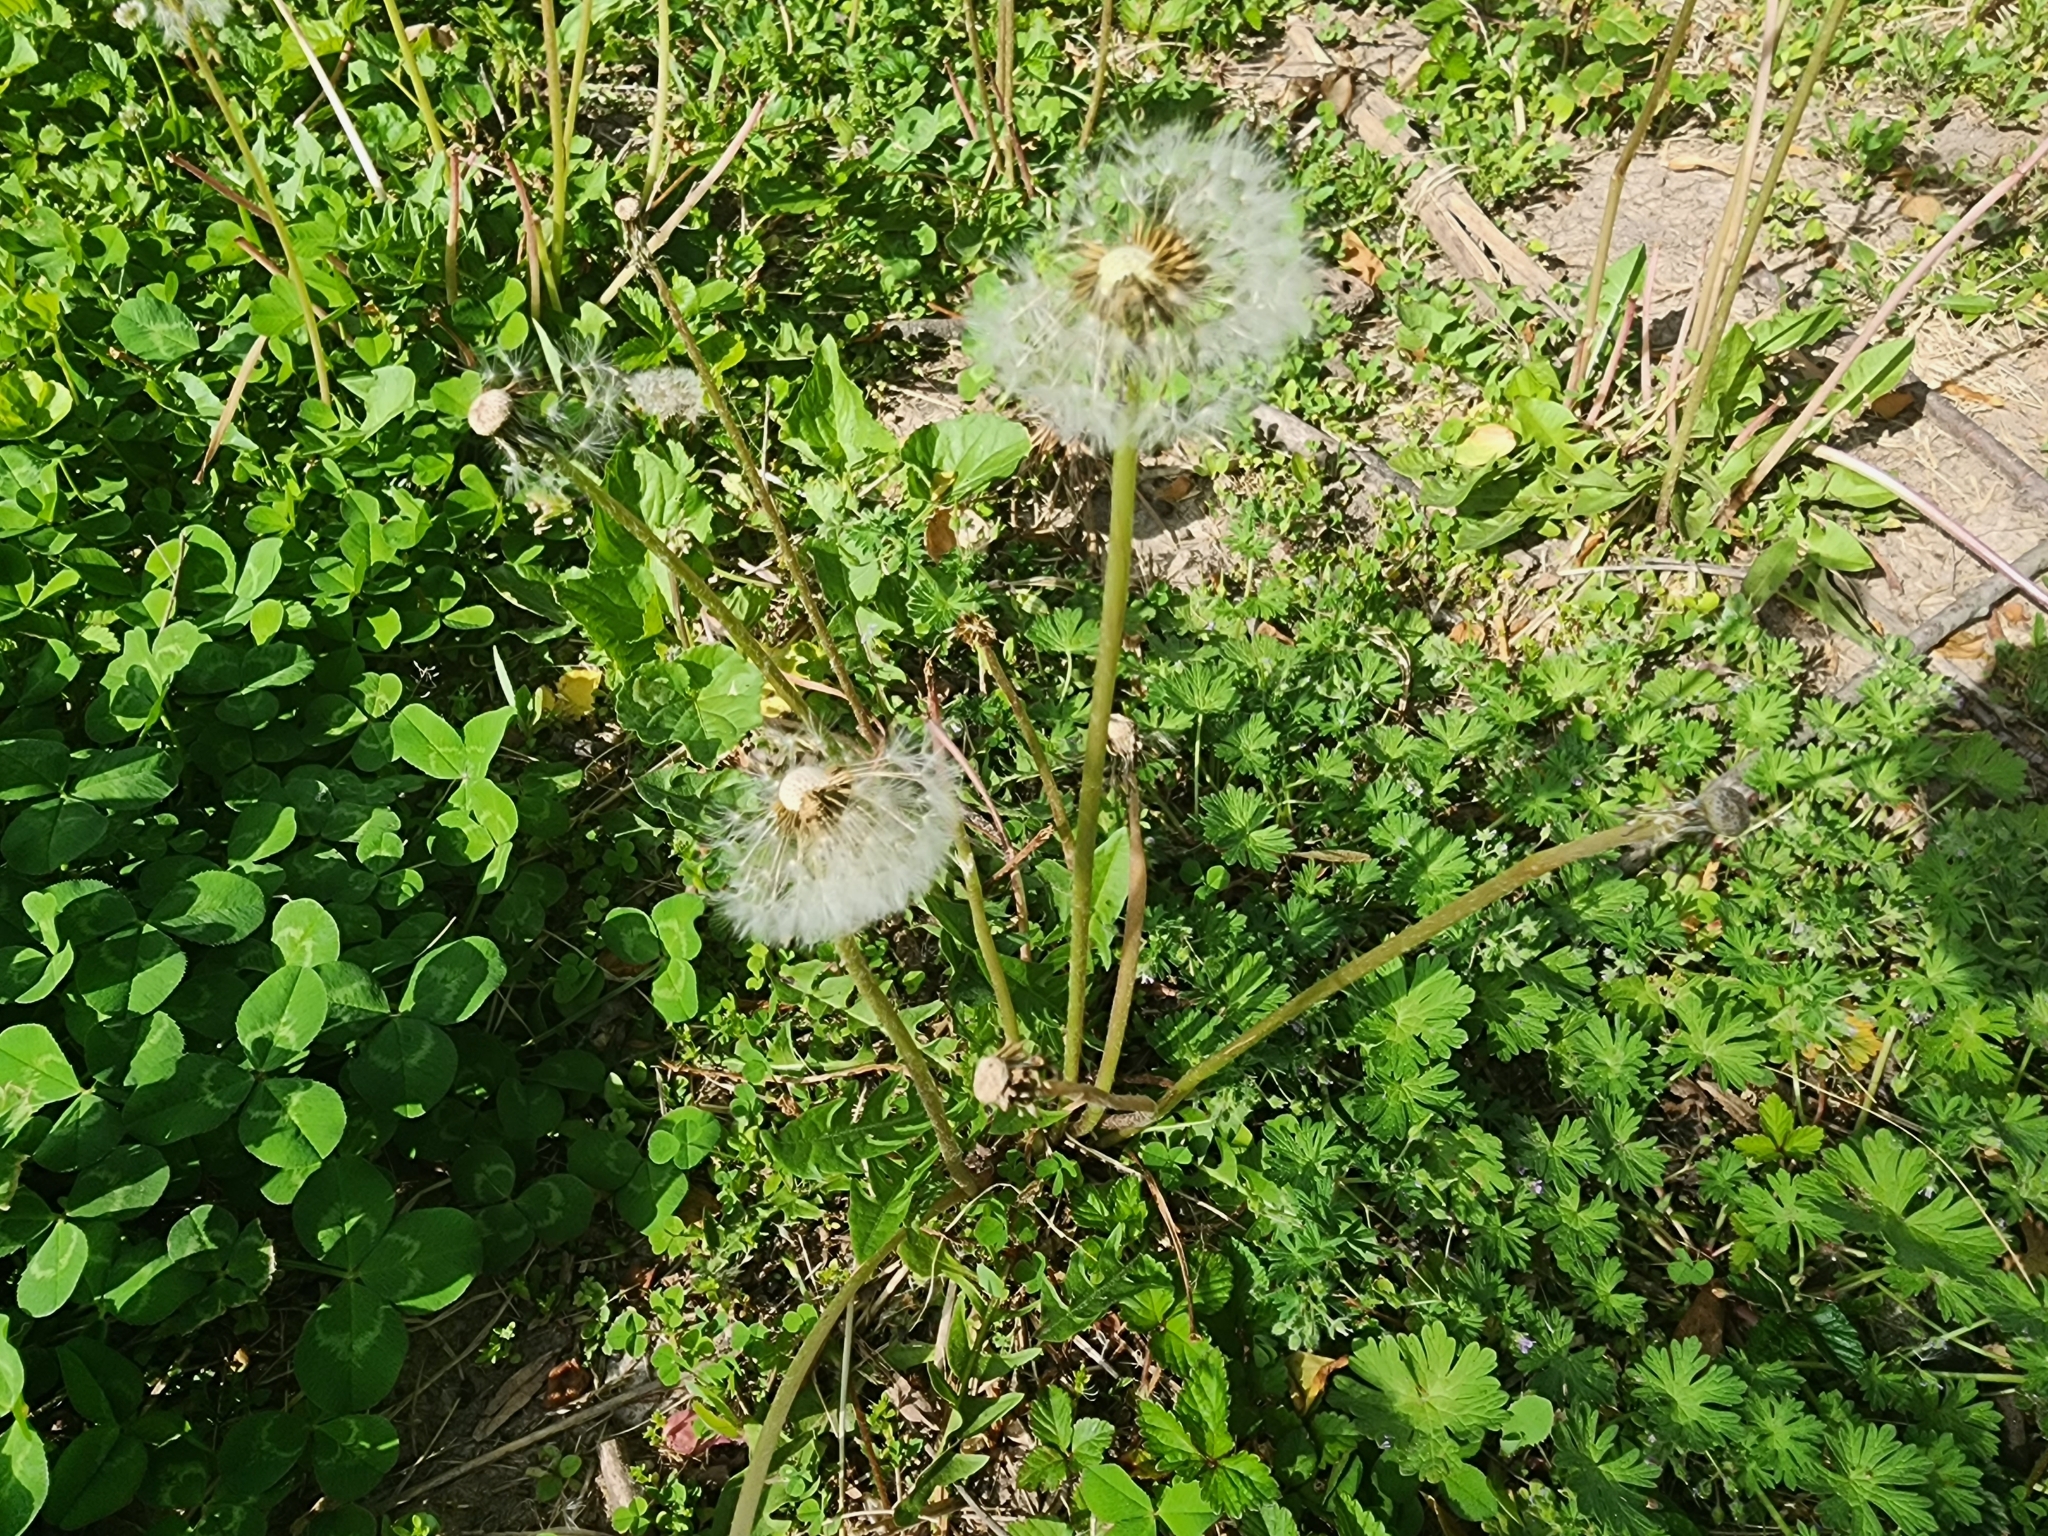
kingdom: Plantae
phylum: Tracheophyta
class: Magnoliopsida
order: Asterales
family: Asteraceae
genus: Taraxacum
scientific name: Taraxacum officinale
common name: Common dandelion
